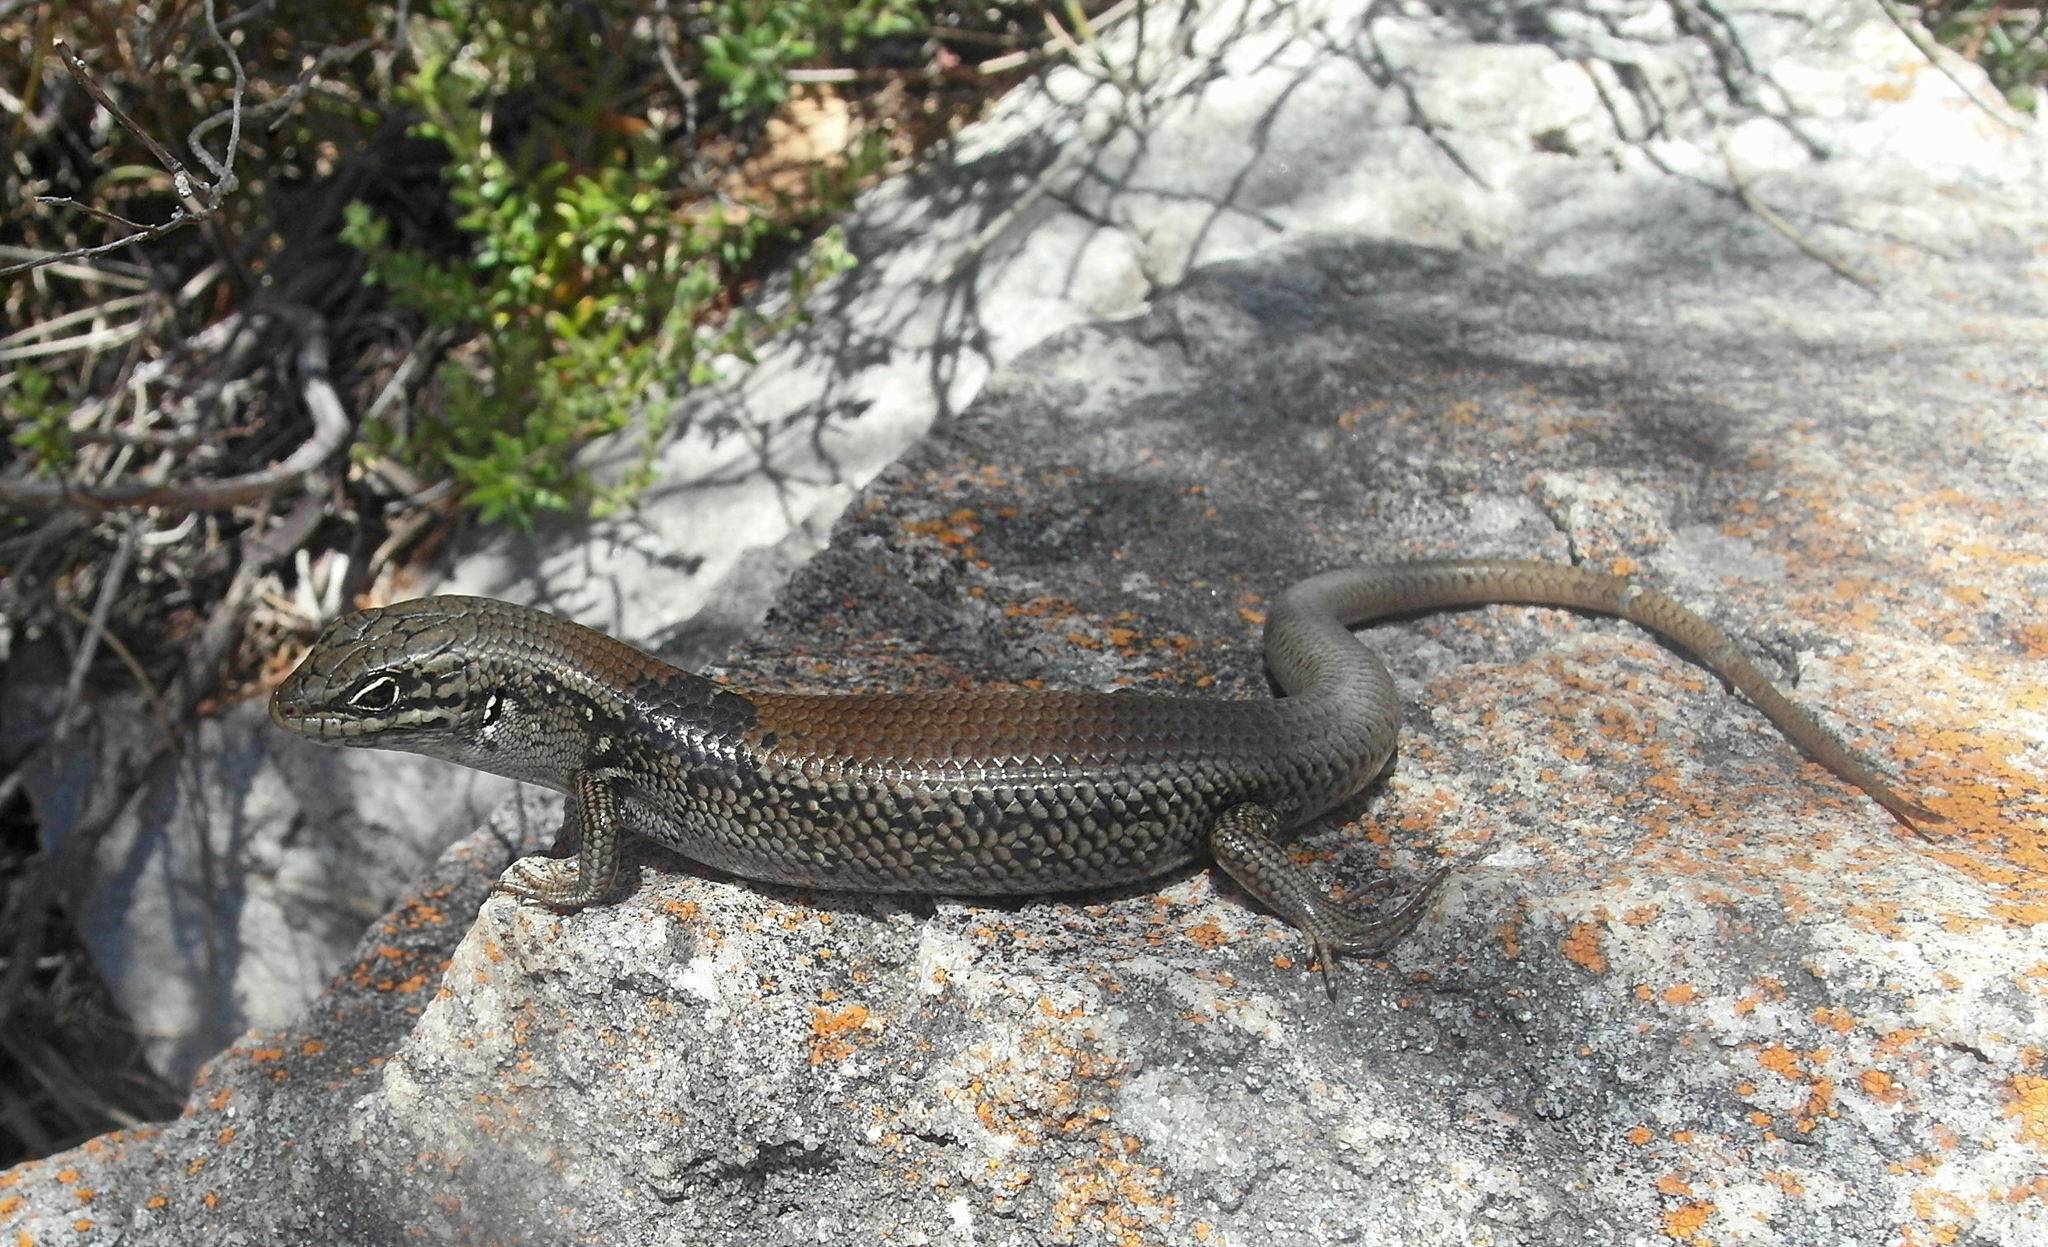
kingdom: Animalia
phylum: Chordata
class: Squamata
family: Scincidae
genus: Liopholis
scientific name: Liopholis whitii
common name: White's rock-skink
